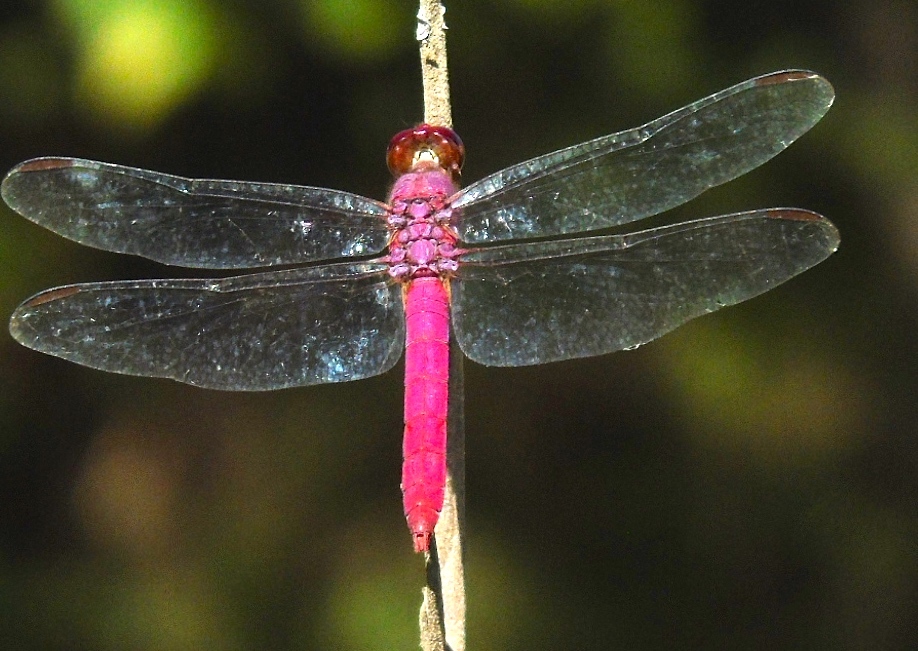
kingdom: Animalia
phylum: Arthropoda
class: Insecta
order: Odonata
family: Libellulidae
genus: Orthemis
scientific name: Orthemis discolor
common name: Carmine skimmer
